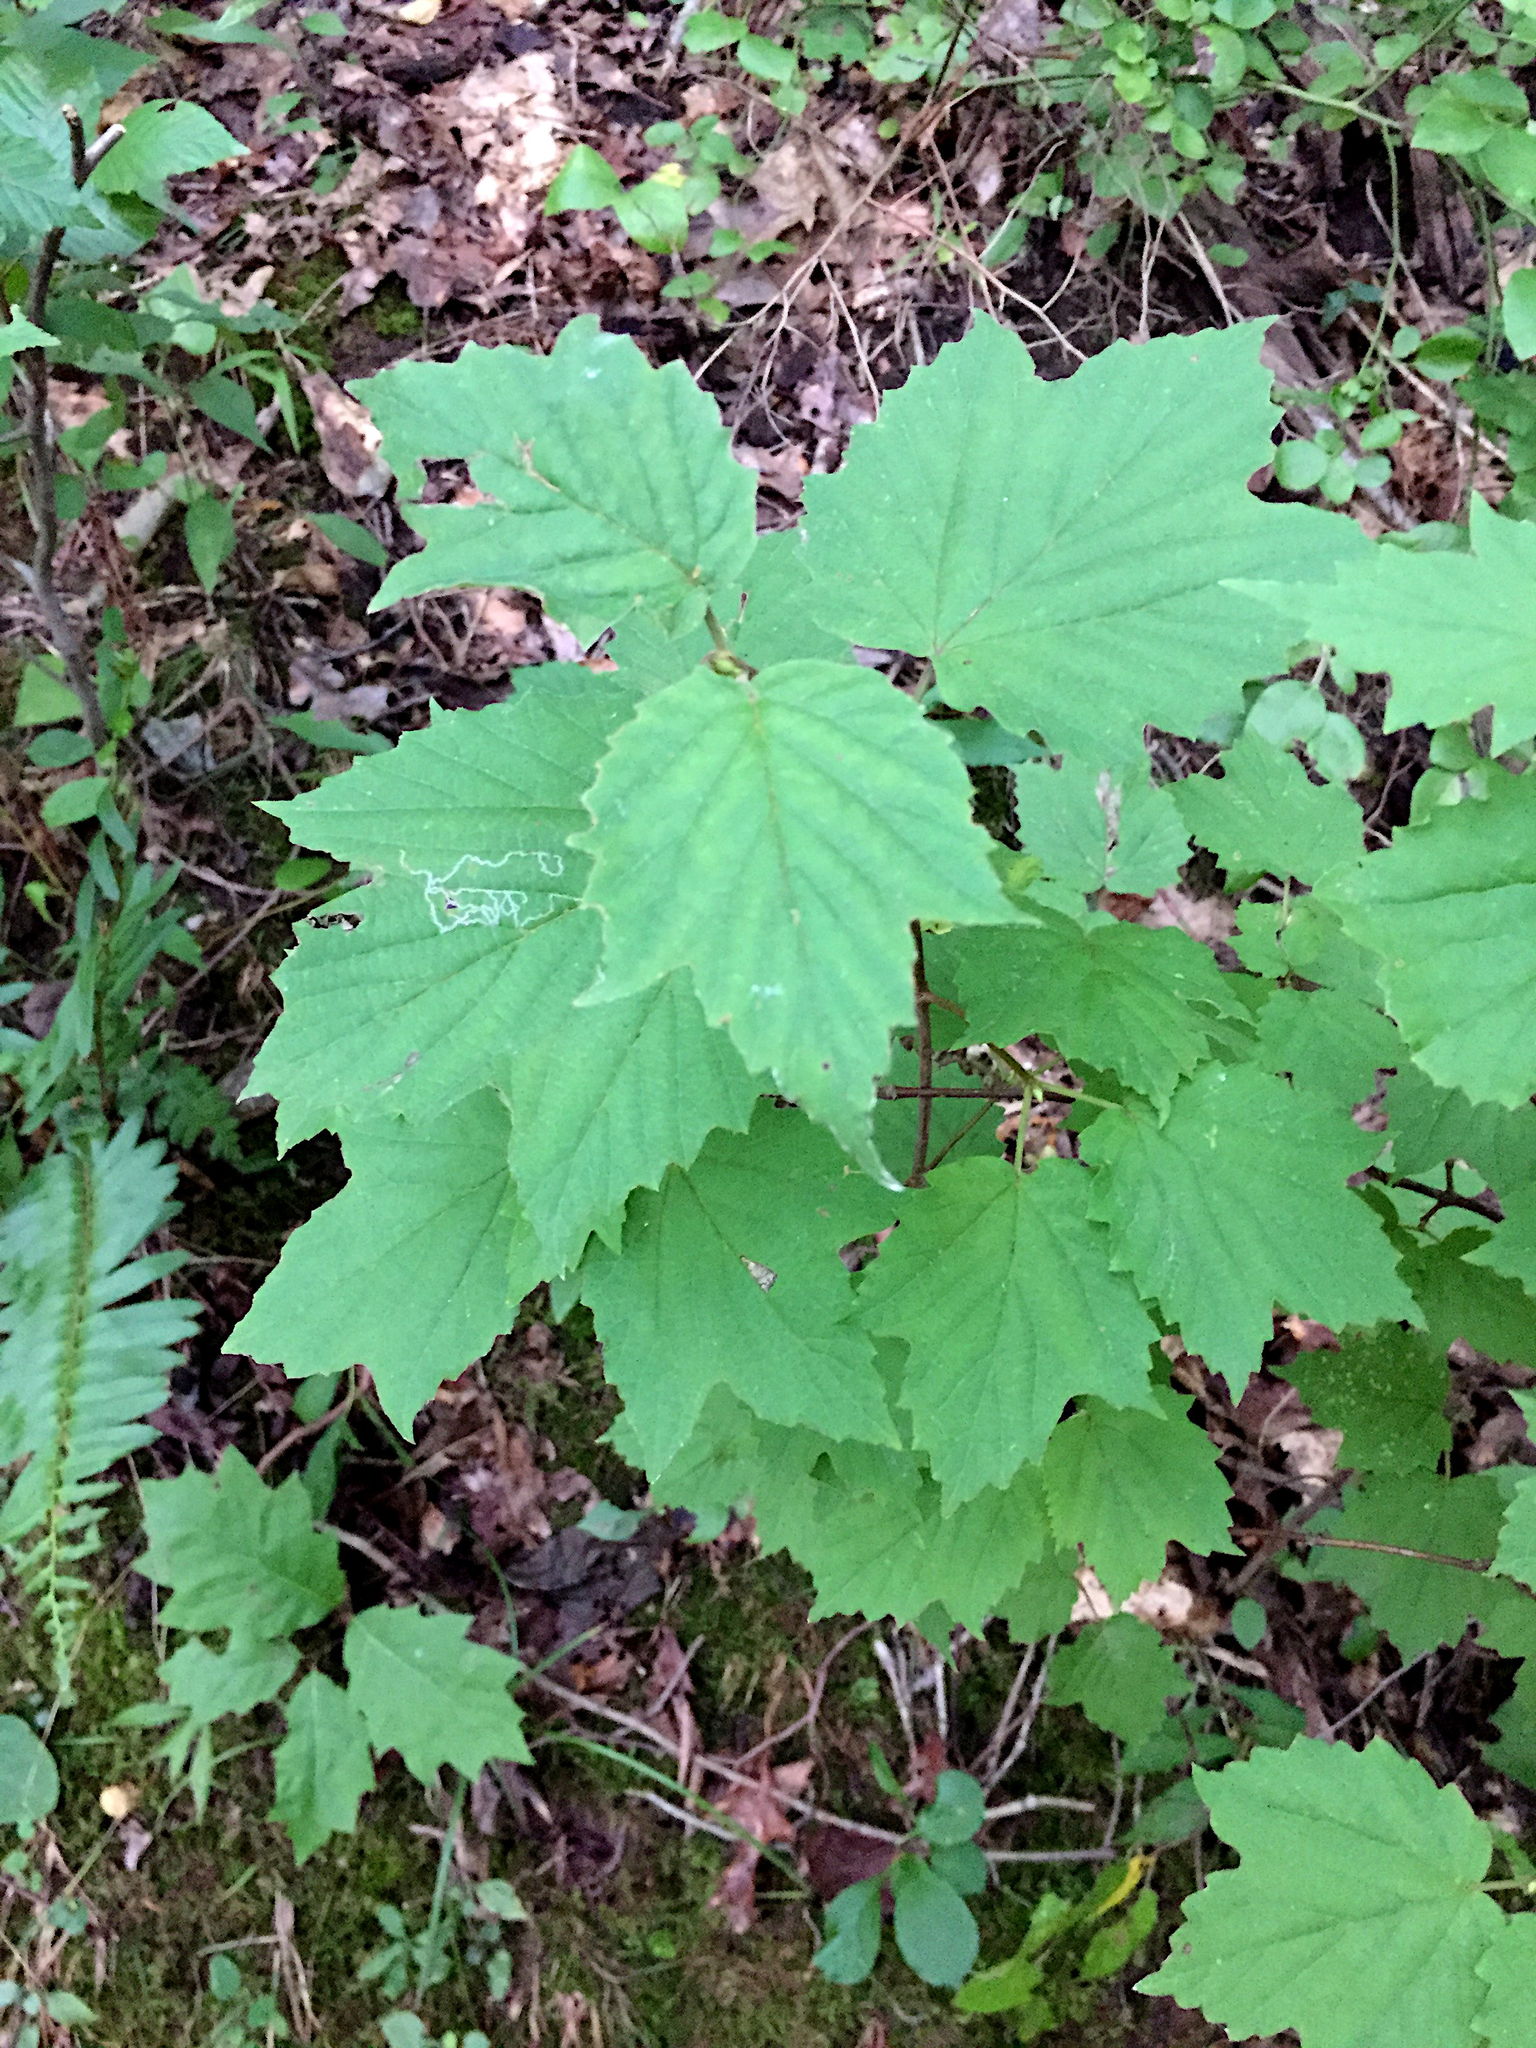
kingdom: Plantae
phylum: Tracheophyta
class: Magnoliopsida
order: Dipsacales
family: Viburnaceae
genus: Viburnum
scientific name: Viburnum acerifolium
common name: Dockmackie
